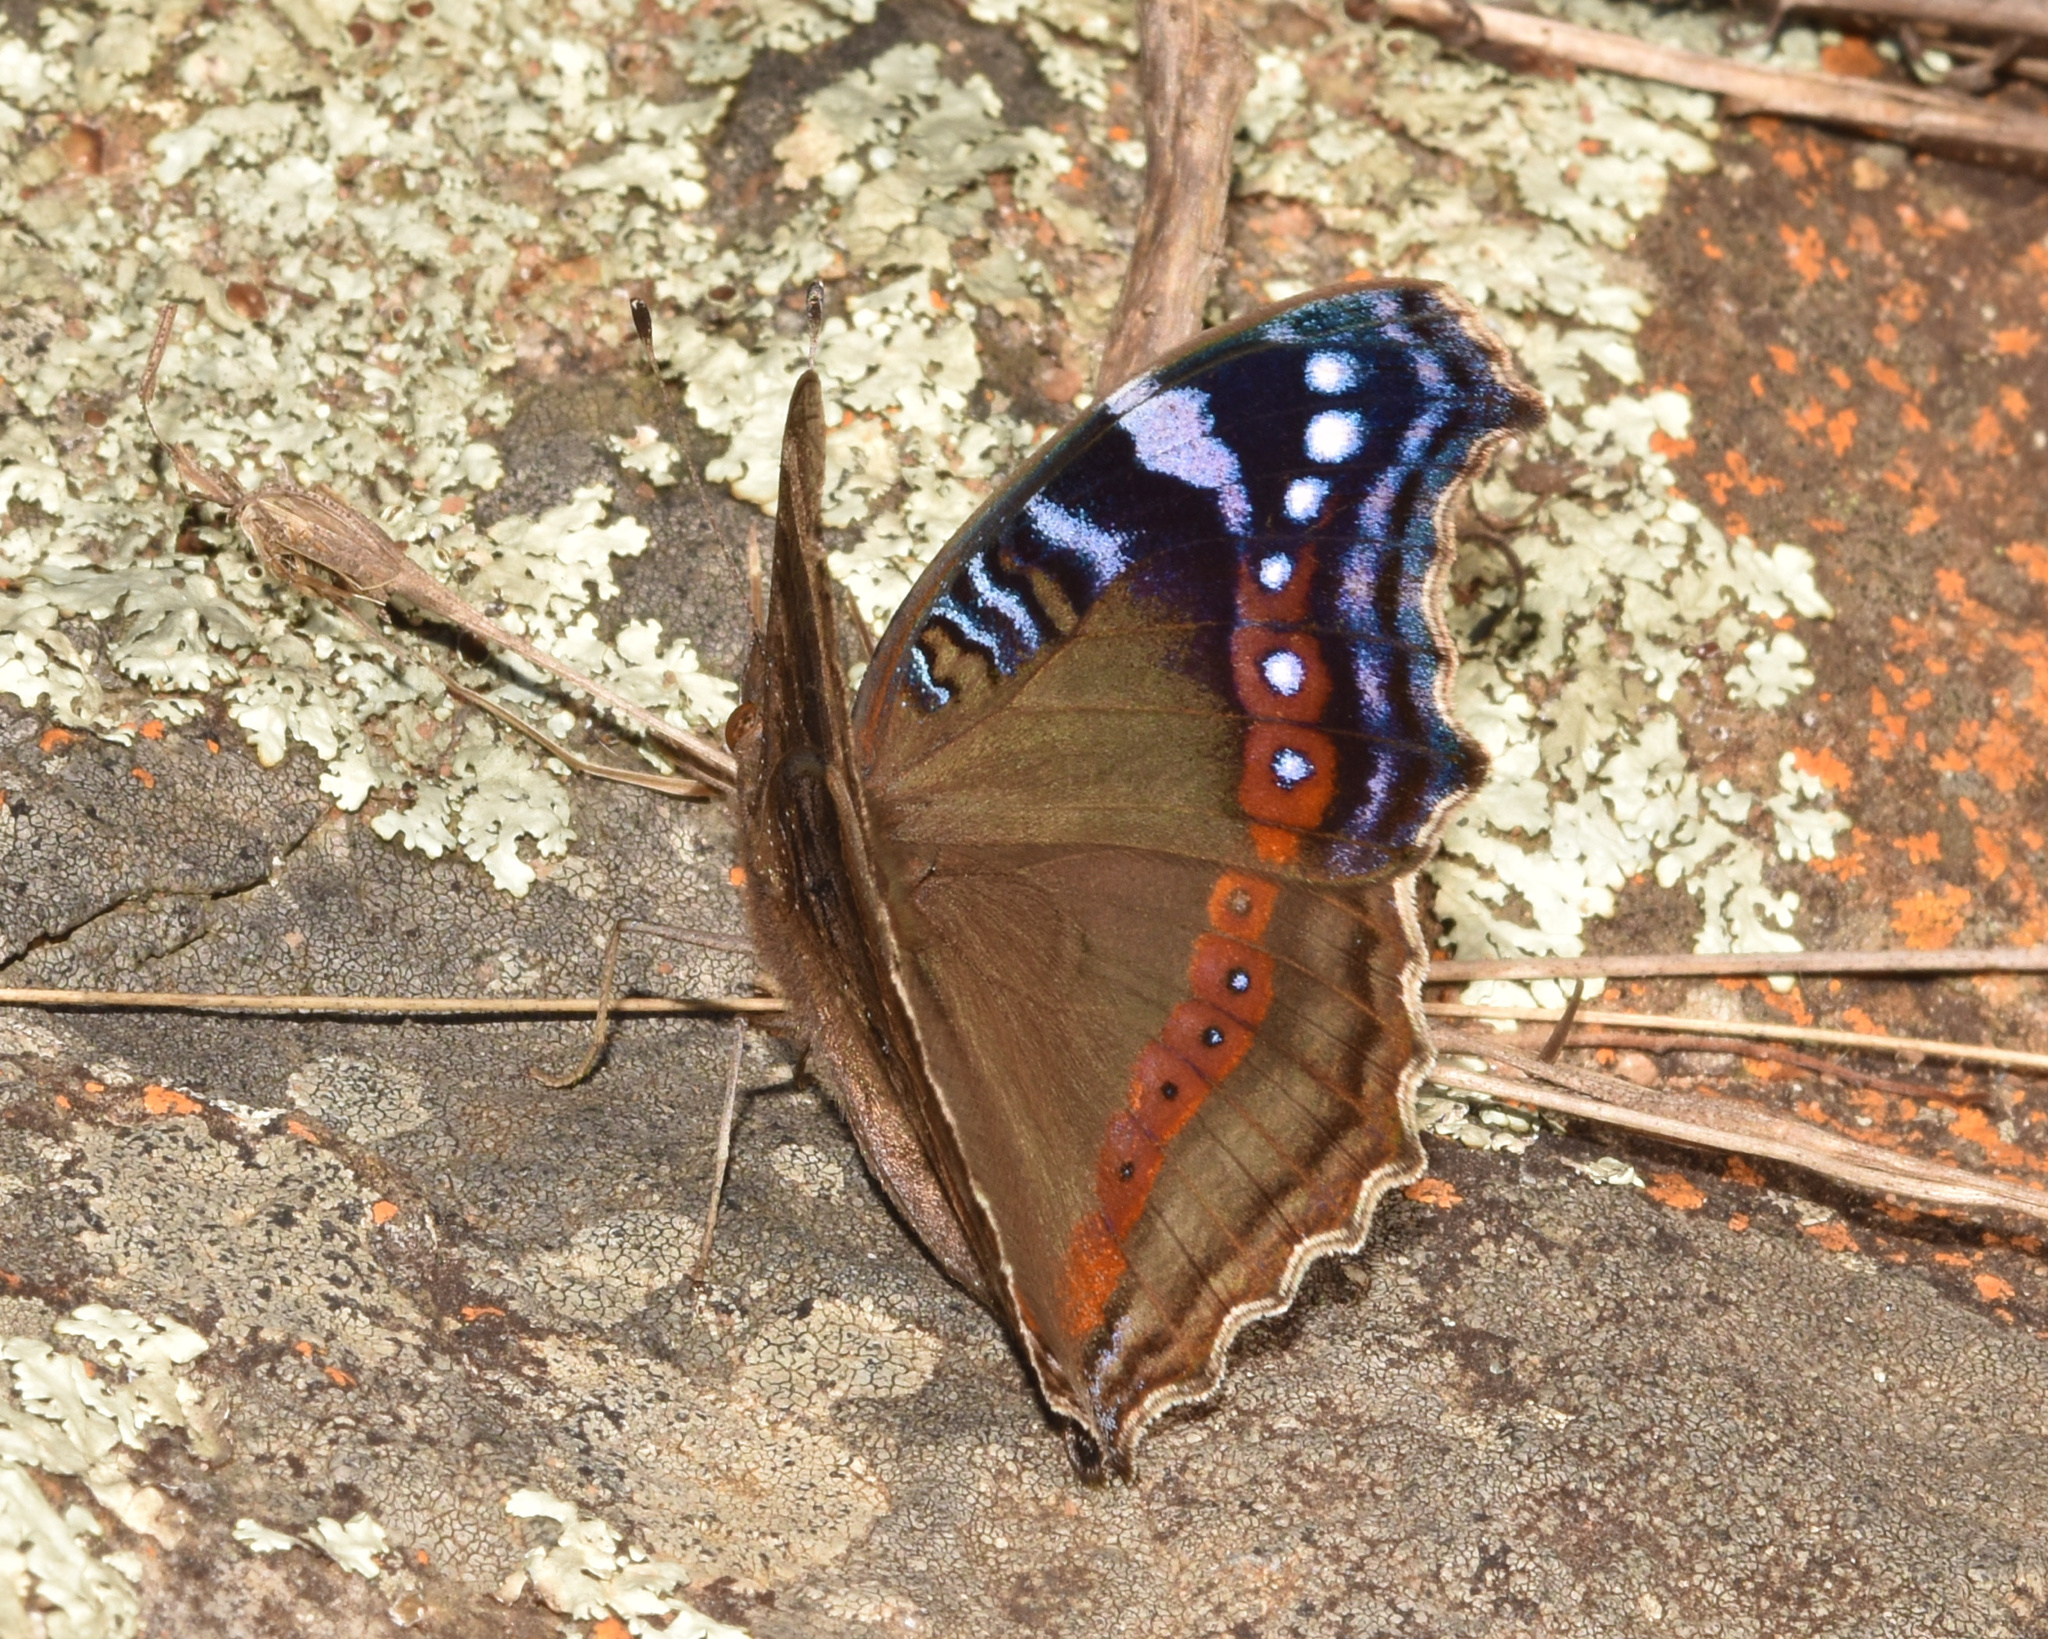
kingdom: Animalia
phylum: Arthropoda
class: Insecta
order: Lepidoptera
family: Nymphalidae
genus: Junonia
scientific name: Junonia archesia
